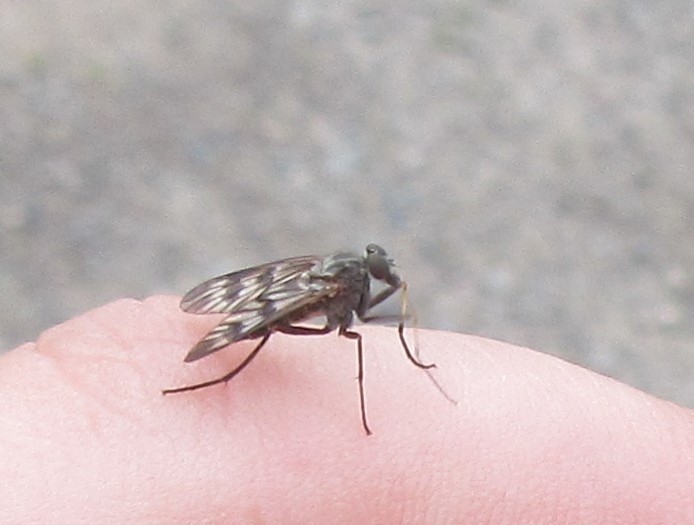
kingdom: Animalia
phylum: Arthropoda
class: Insecta
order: Diptera
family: Rhagionidae
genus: Rhagio
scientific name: Rhagio mystaceus
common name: Common snipe fly
